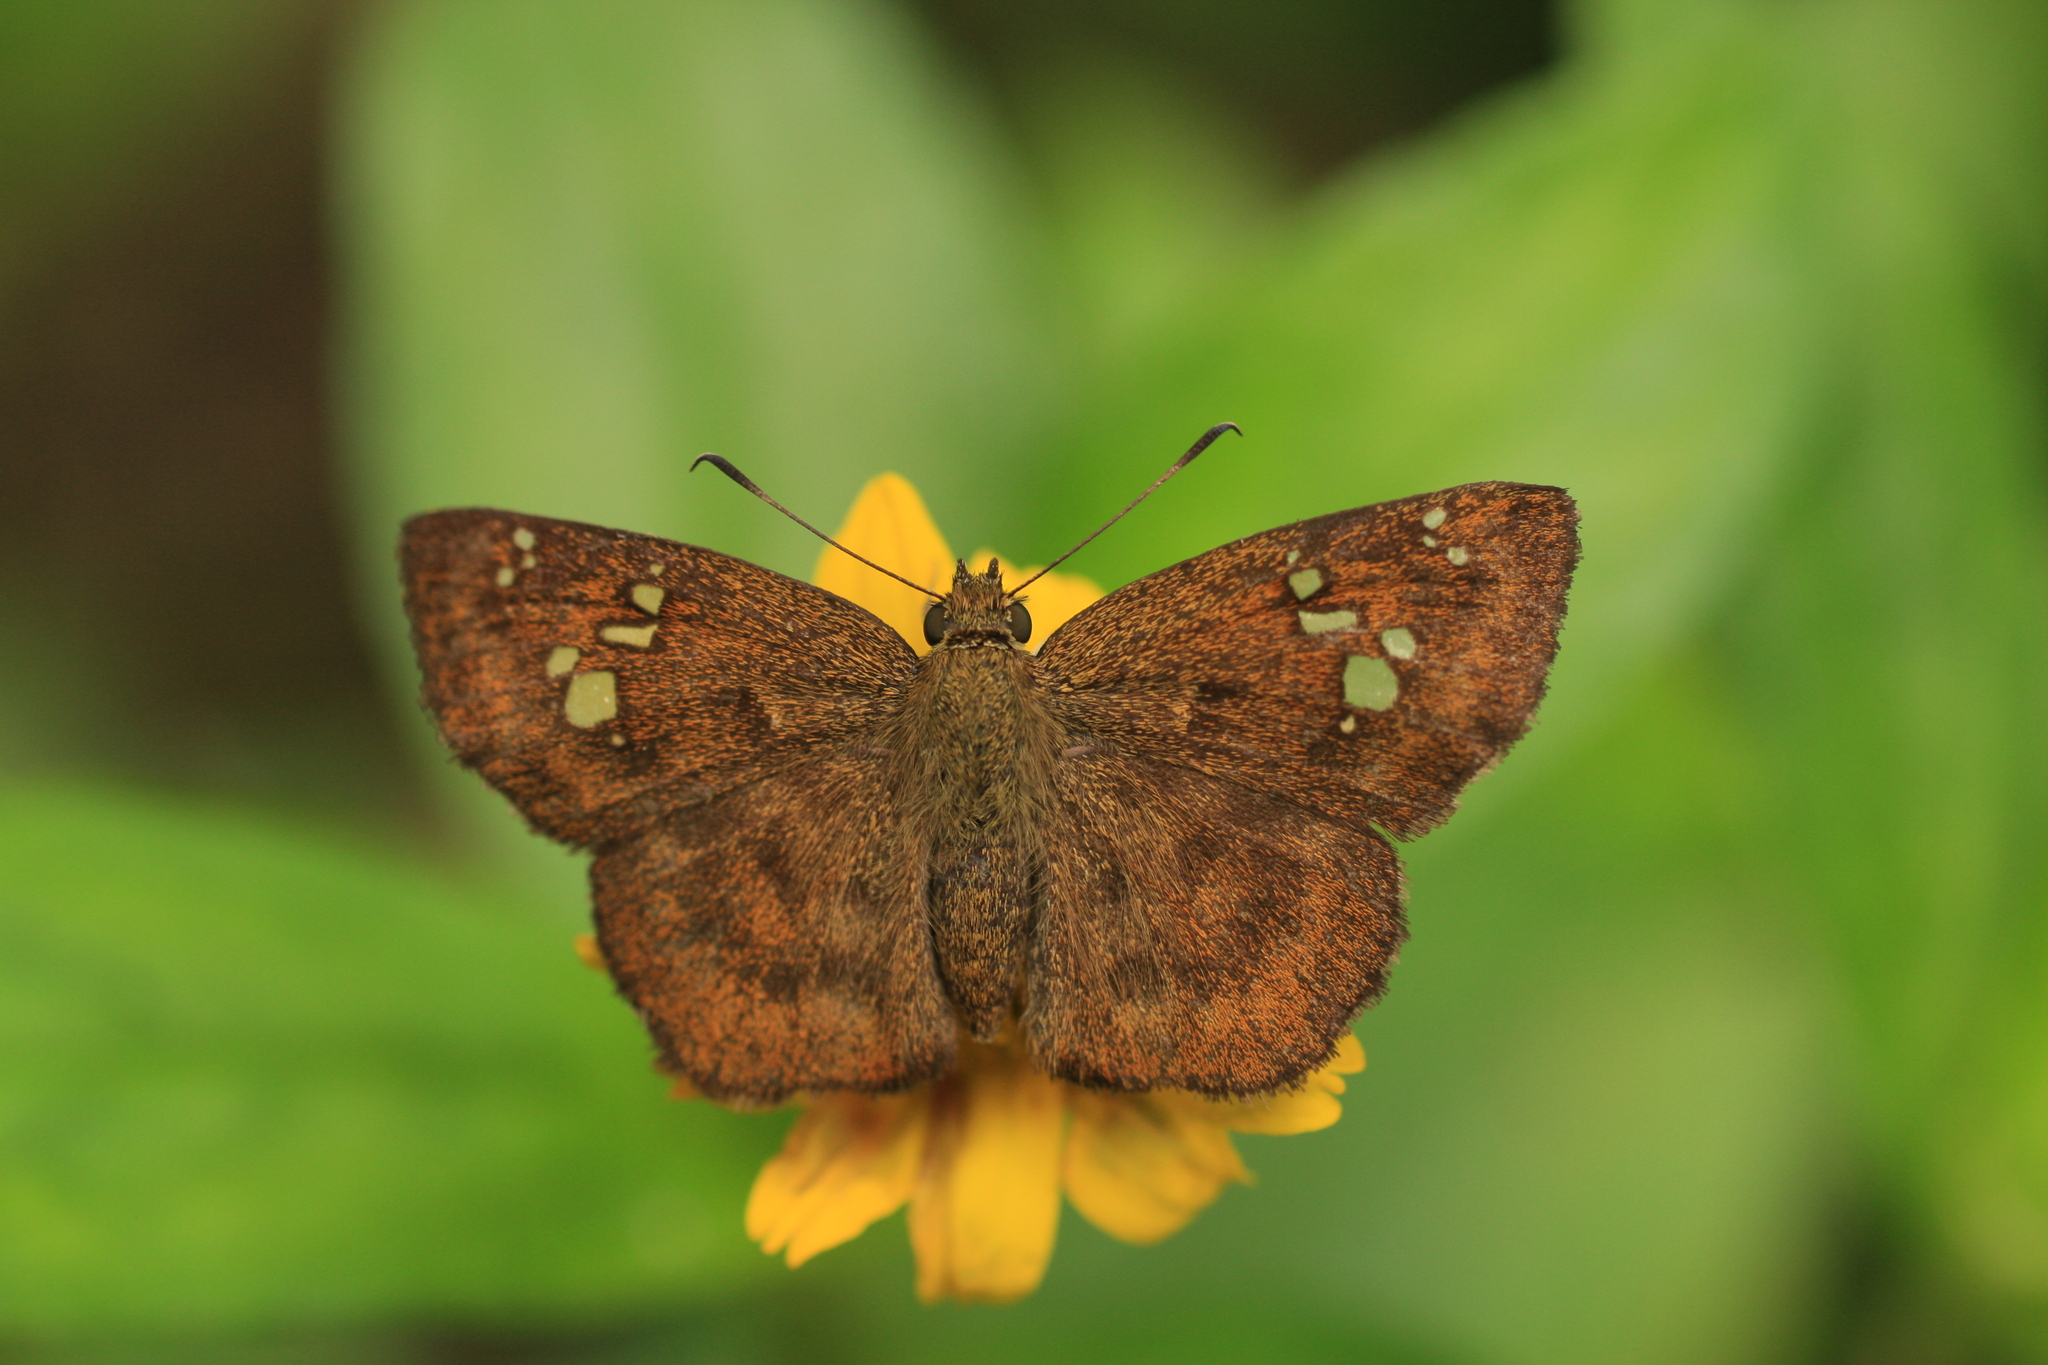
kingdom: Animalia
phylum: Arthropoda
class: Insecta
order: Lepidoptera
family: Hesperiidae
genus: Pseudocoladenia
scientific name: Pseudocoladenia dan
